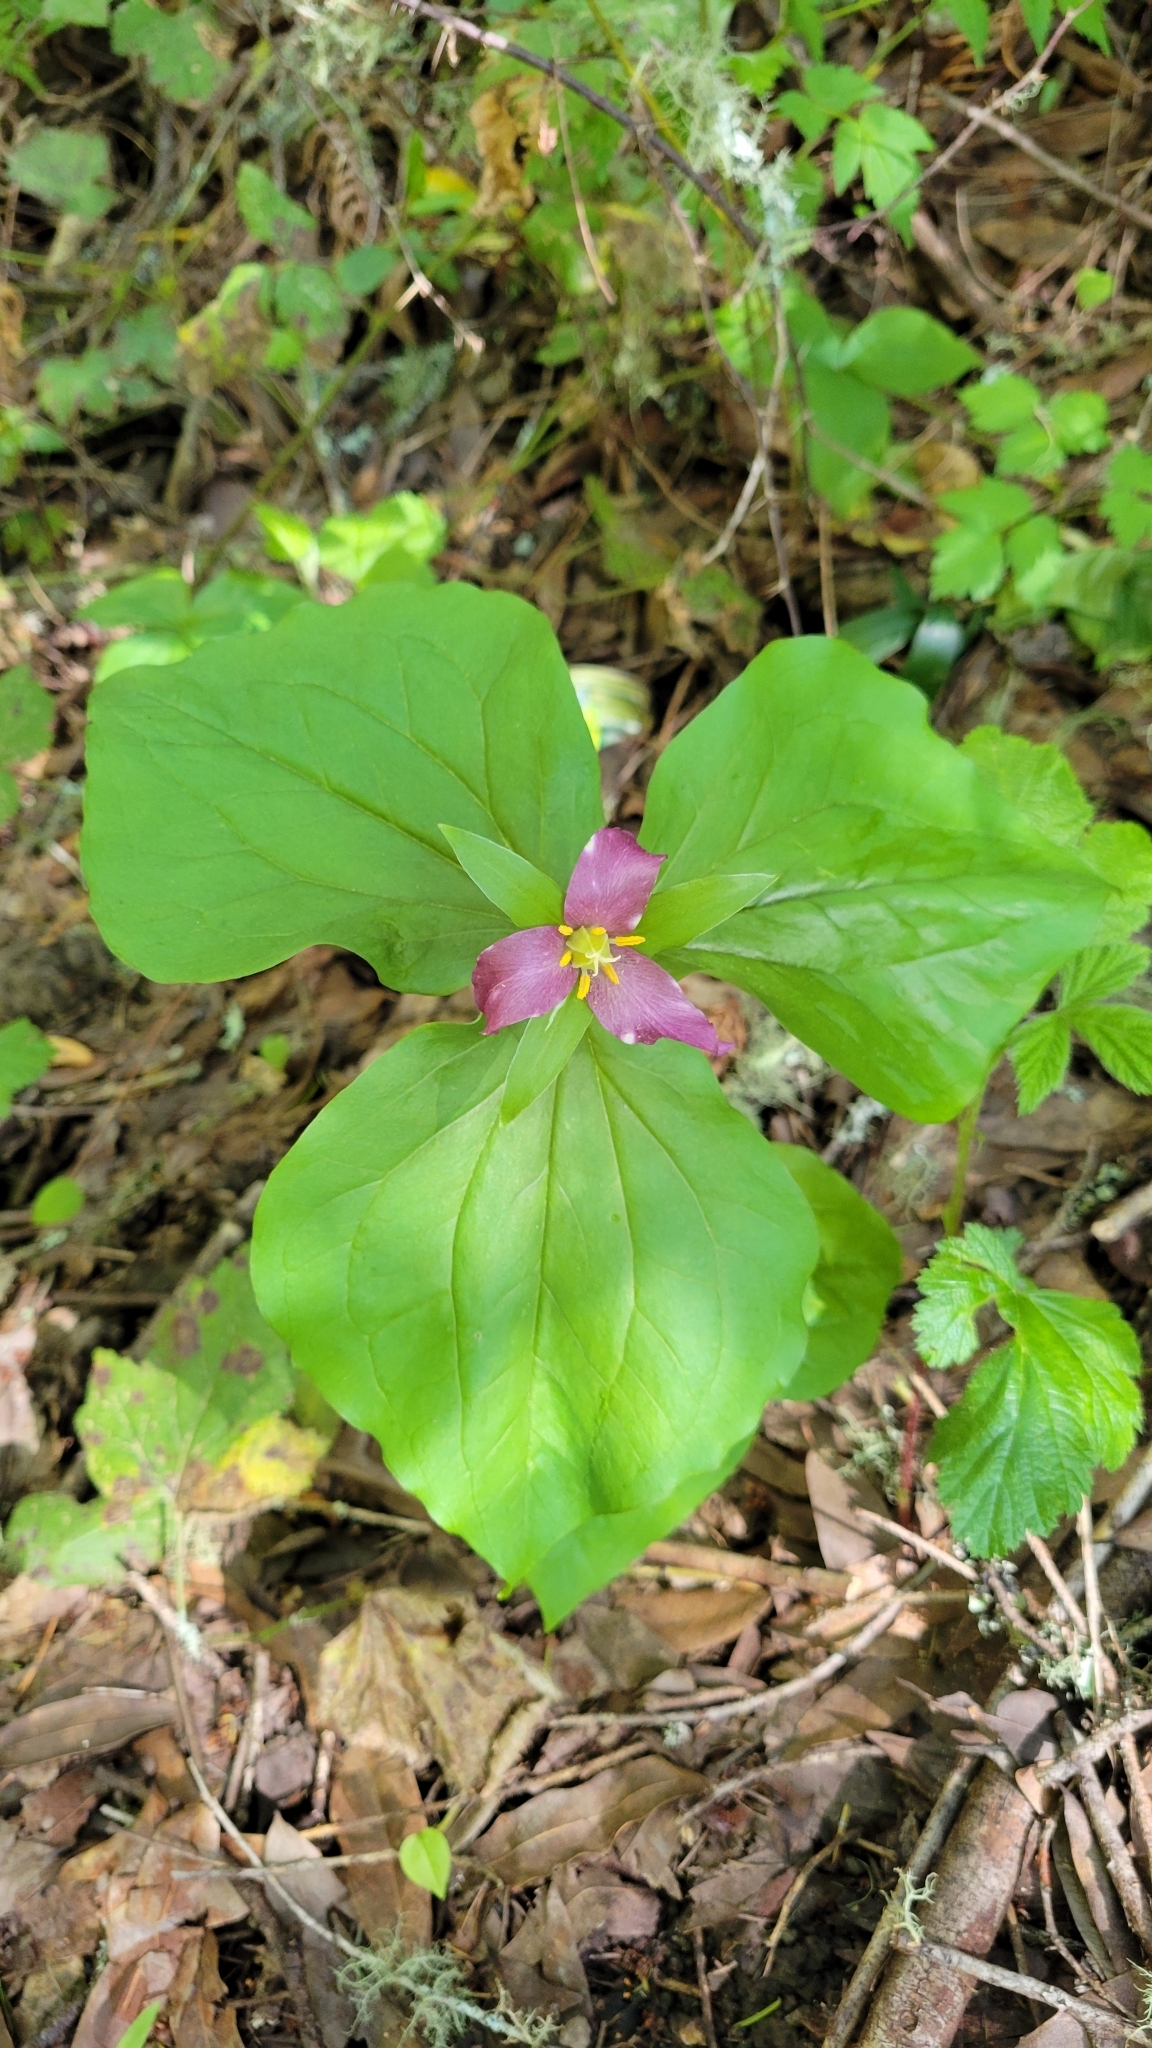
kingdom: Plantae
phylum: Tracheophyta
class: Liliopsida
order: Liliales
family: Melanthiaceae
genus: Trillium
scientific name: Trillium ovatum
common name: Pacific trillium
